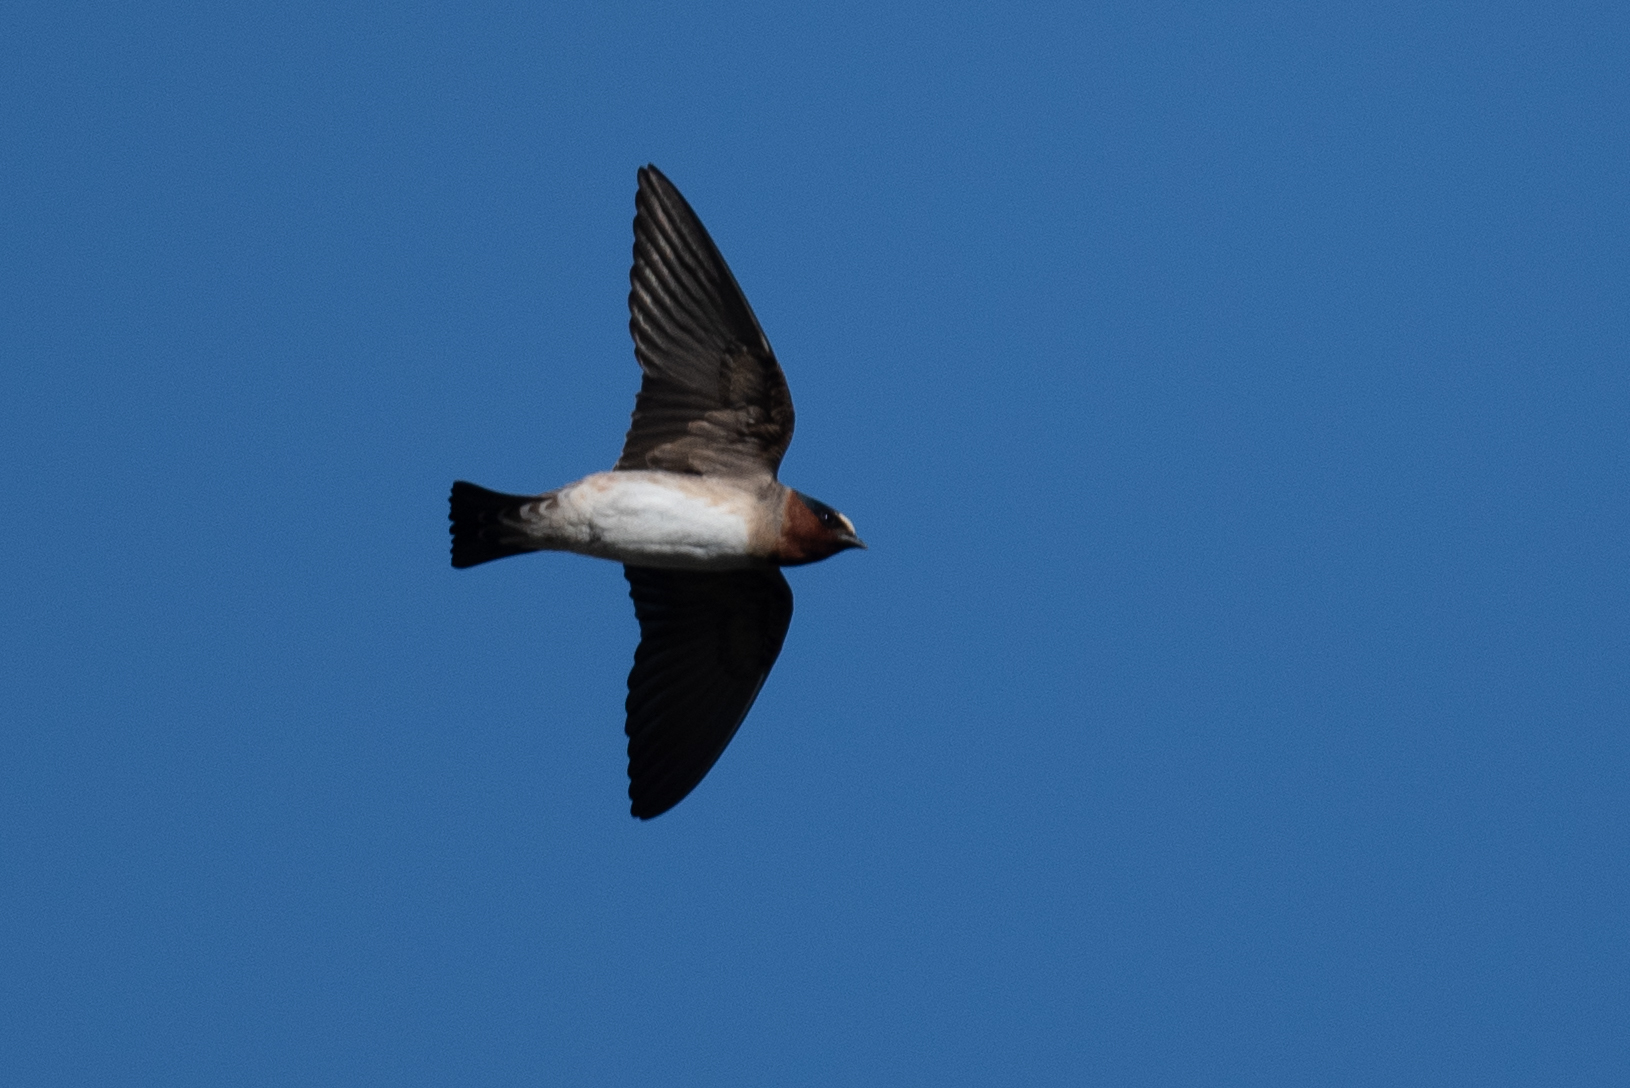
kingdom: Animalia
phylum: Chordata
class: Aves
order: Passeriformes
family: Hirundinidae
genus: Petrochelidon
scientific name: Petrochelidon pyrrhonota
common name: American cliff swallow
